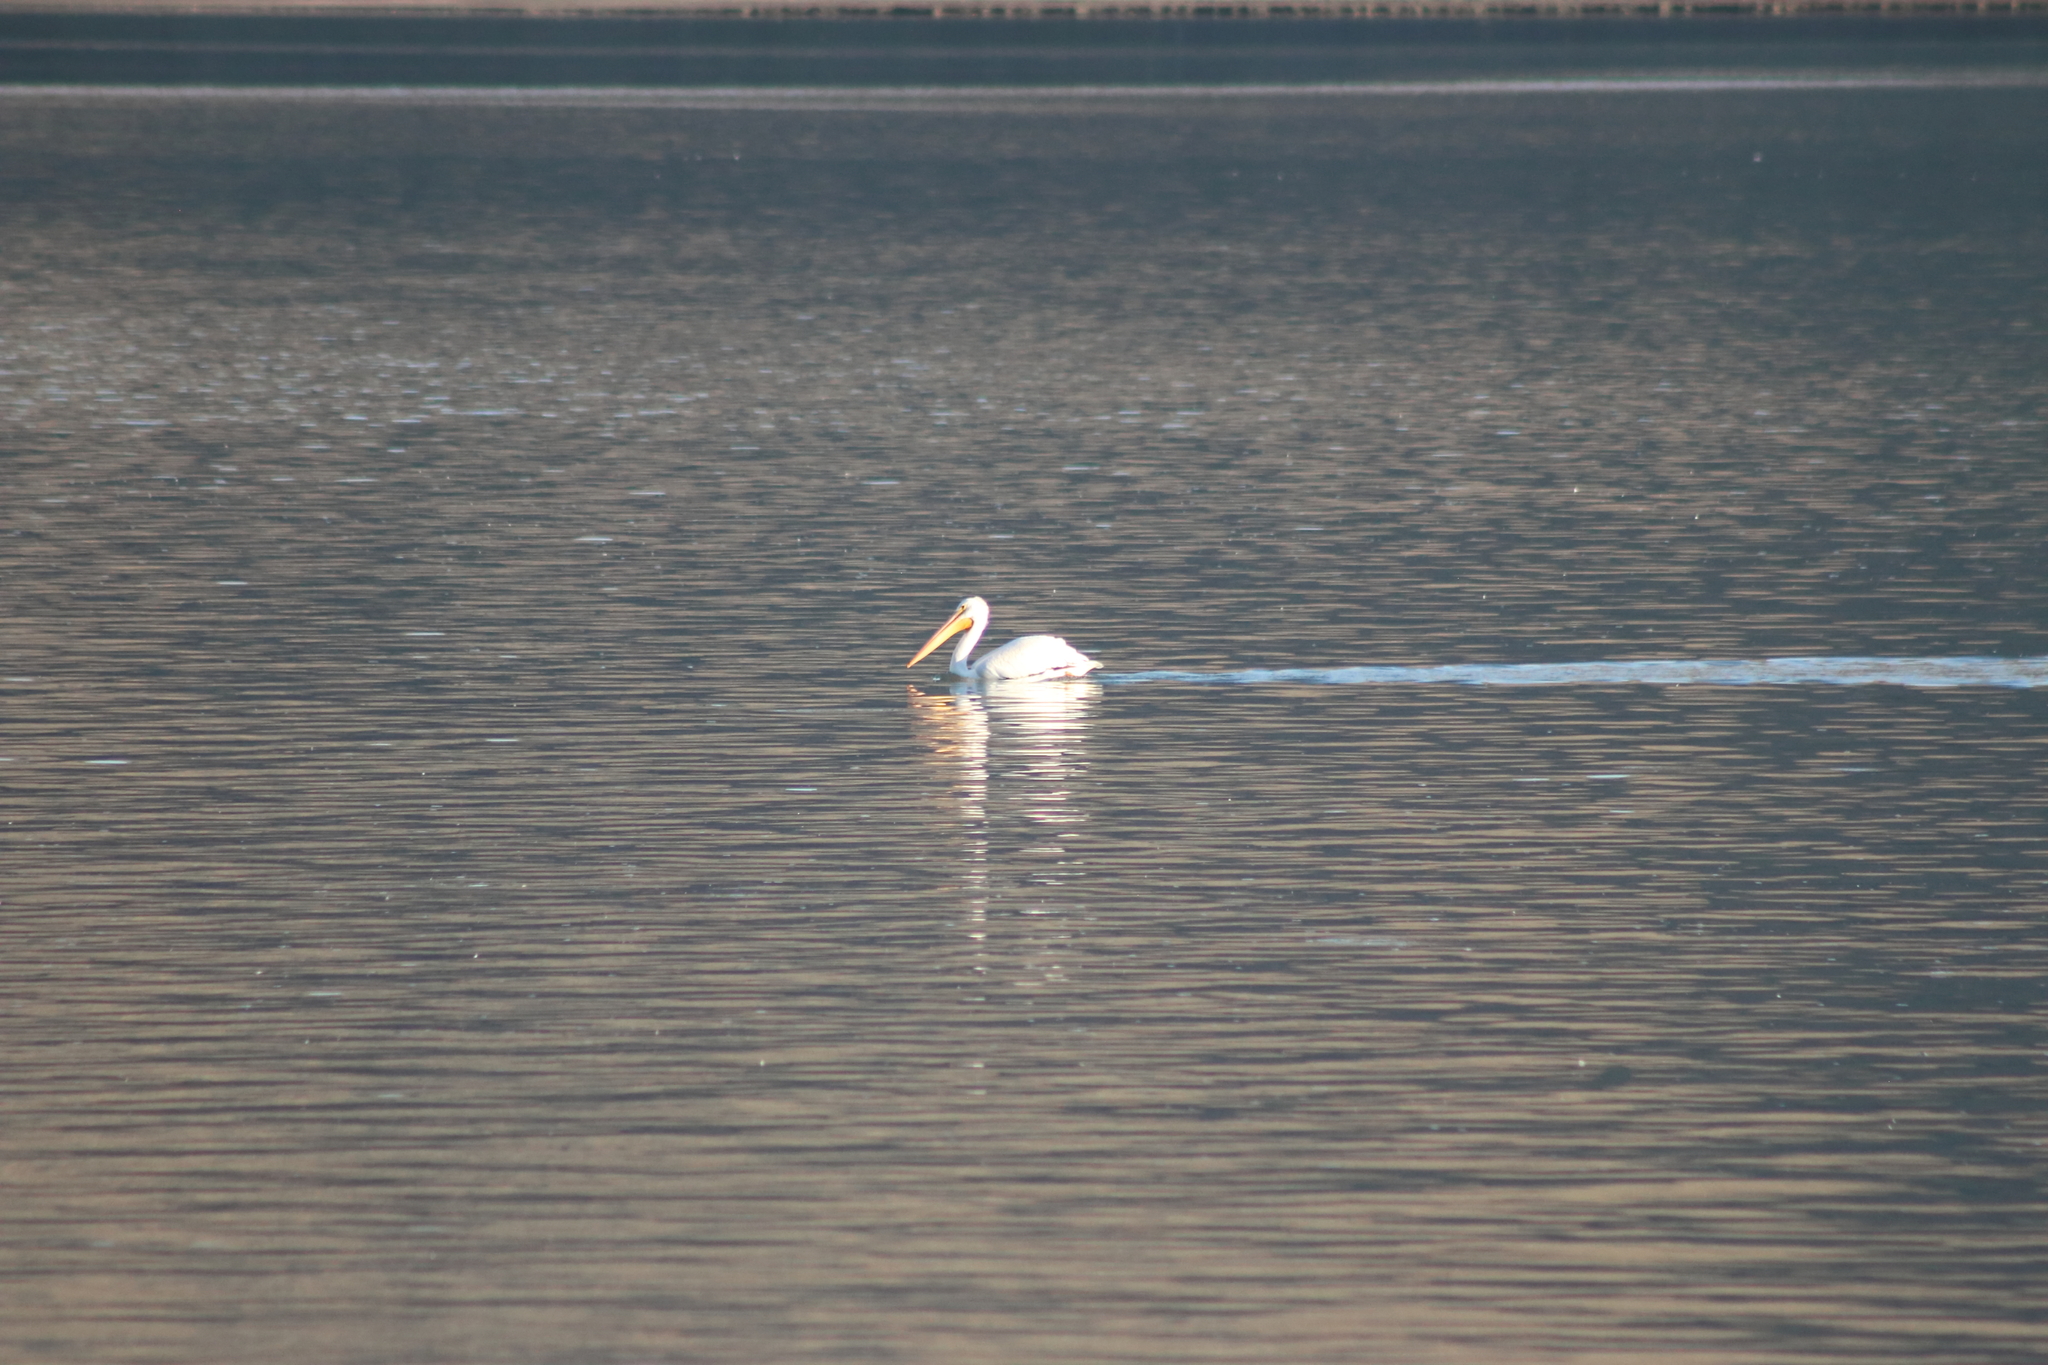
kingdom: Animalia
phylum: Chordata
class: Aves
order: Pelecaniformes
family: Pelecanidae
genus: Pelecanus
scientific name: Pelecanus erythrorhynchos
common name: American white pelican
